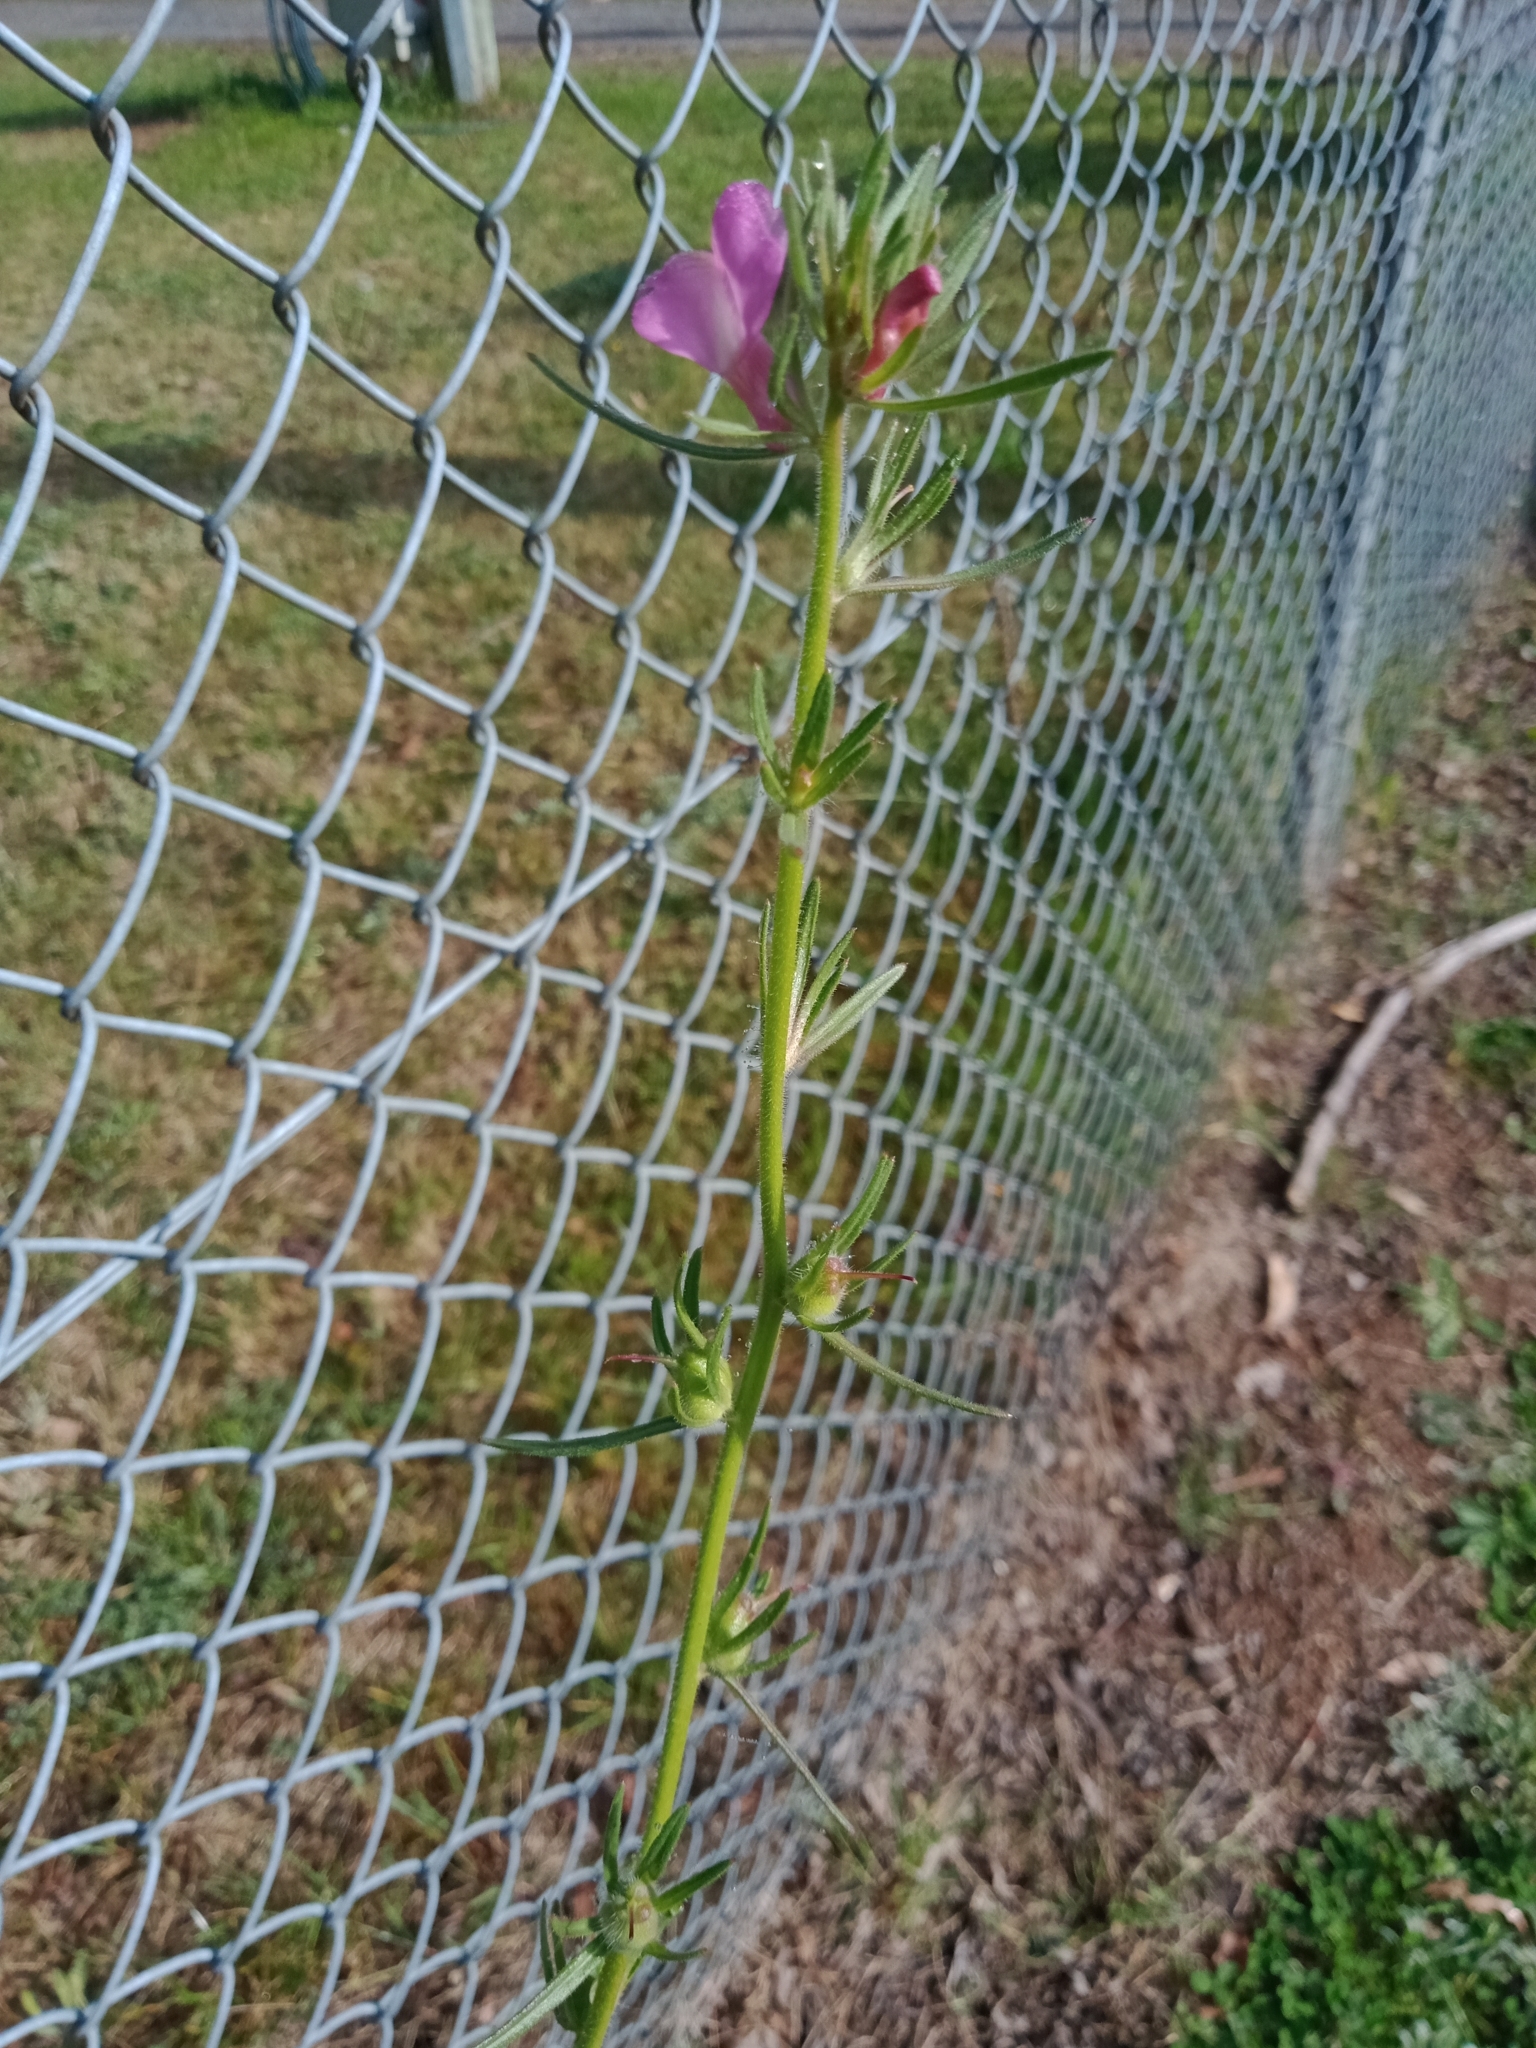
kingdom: Plantae
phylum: Tracheophyta
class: Magnoliopsida
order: Lamiales
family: Plantaginaceae
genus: Misopates
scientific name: Misopates orontium
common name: Weasel's-snout
